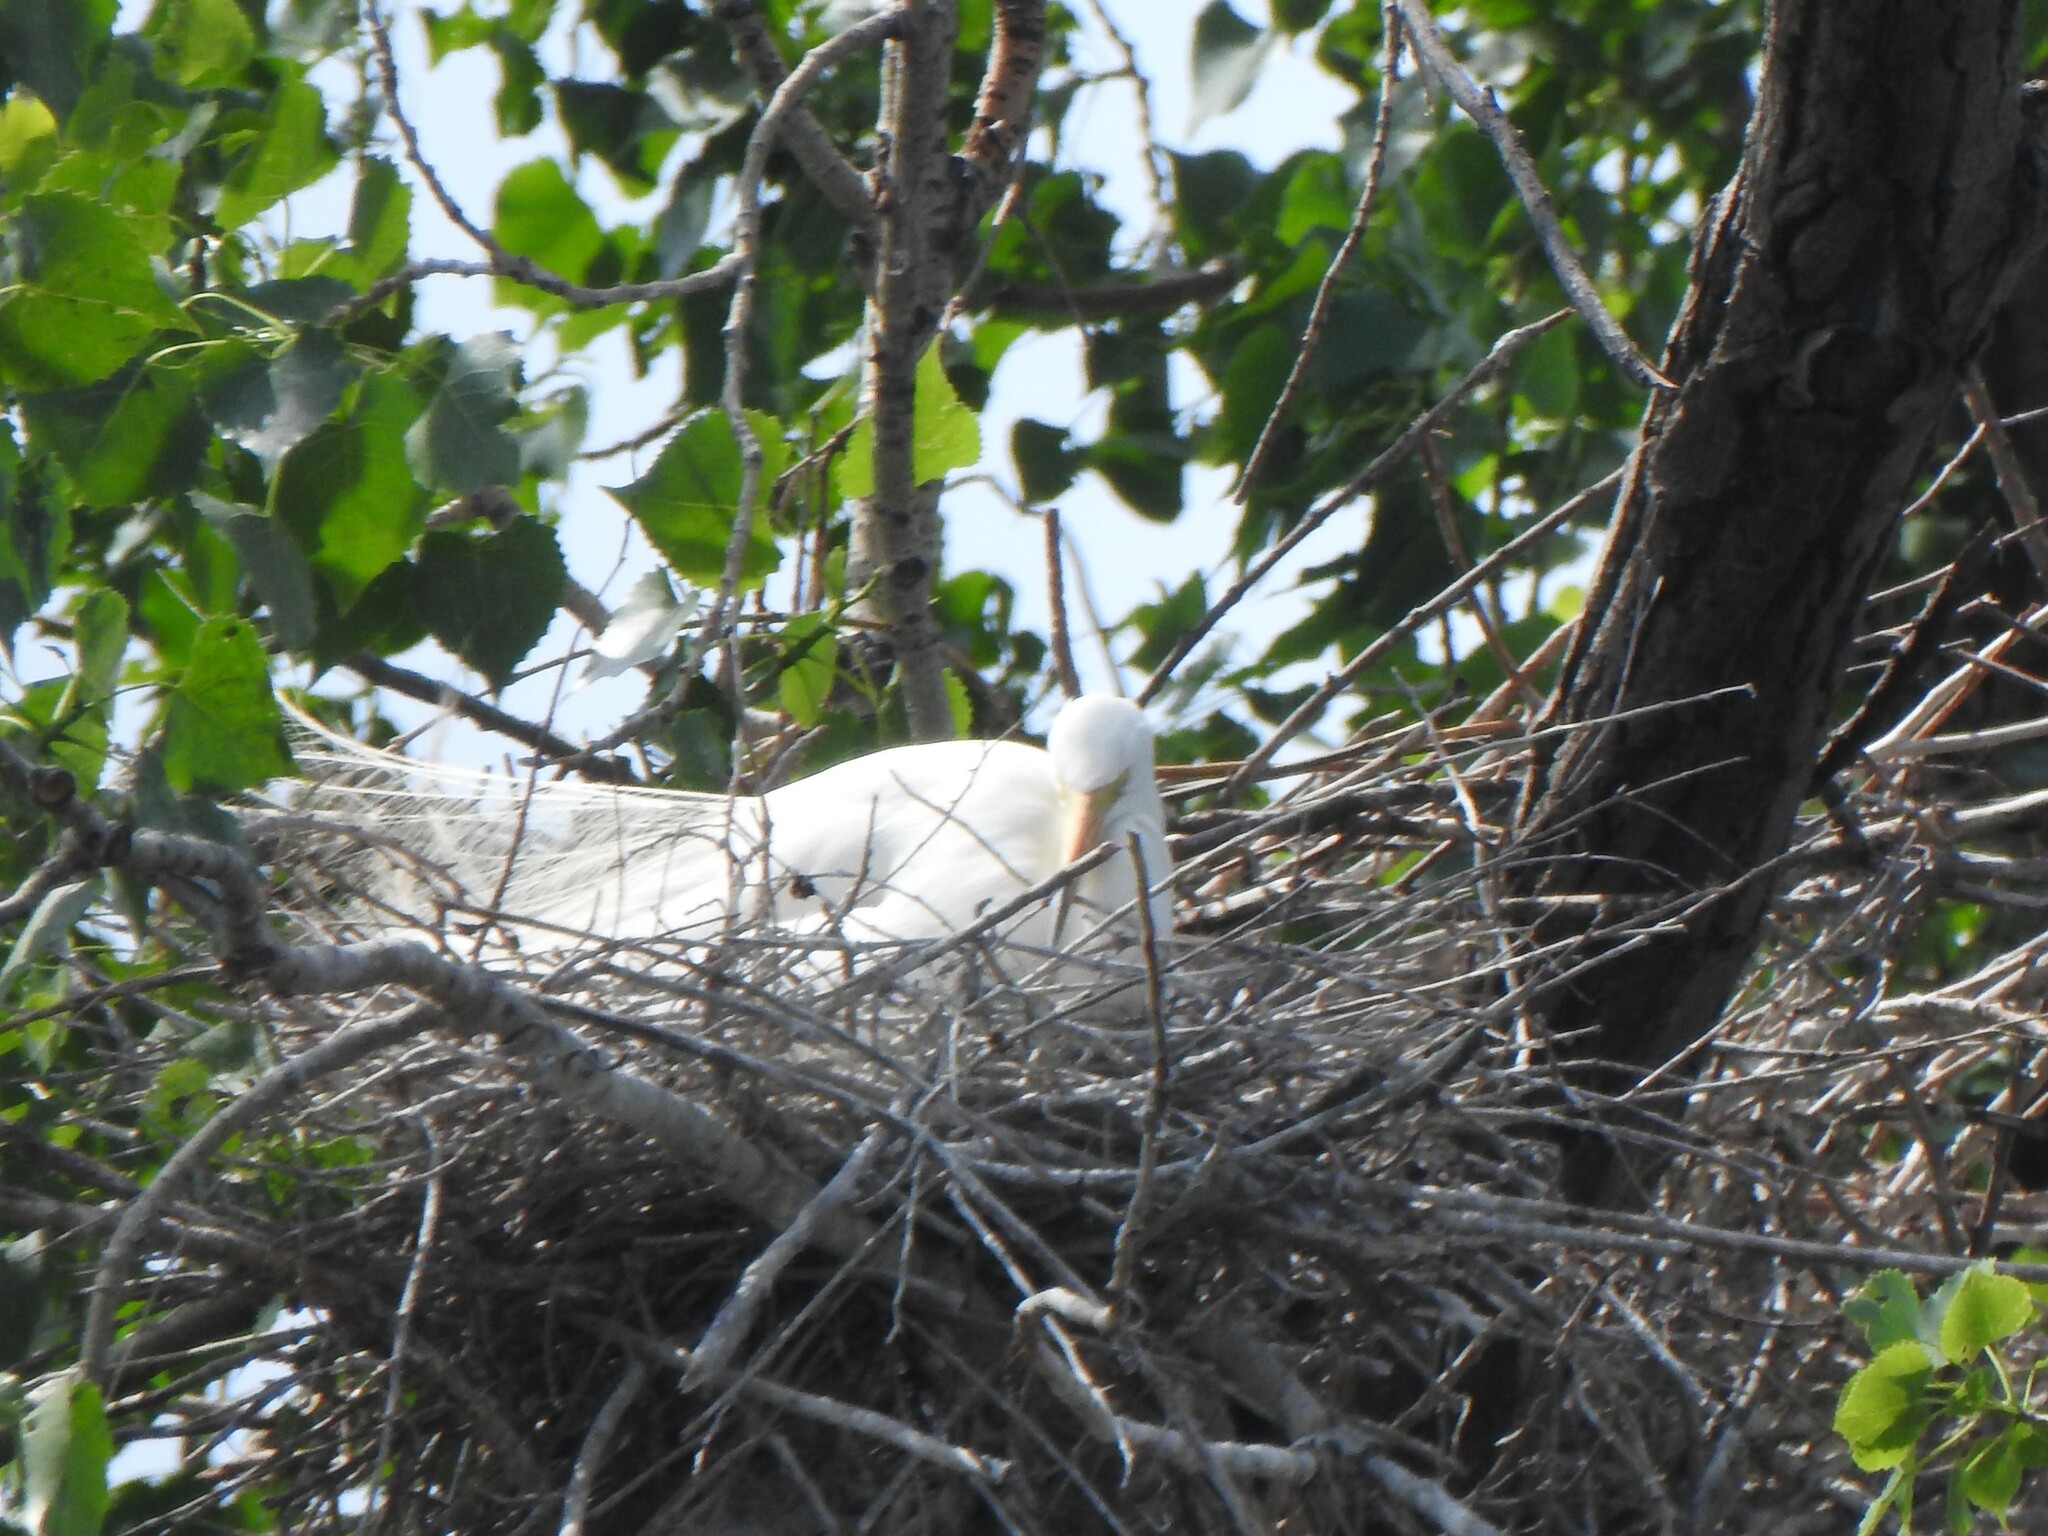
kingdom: Animalia
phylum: Chordata
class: Aves
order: Pelecaniformes
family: Ardeidae
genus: Ardea
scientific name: Ardea alba
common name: Great egret
